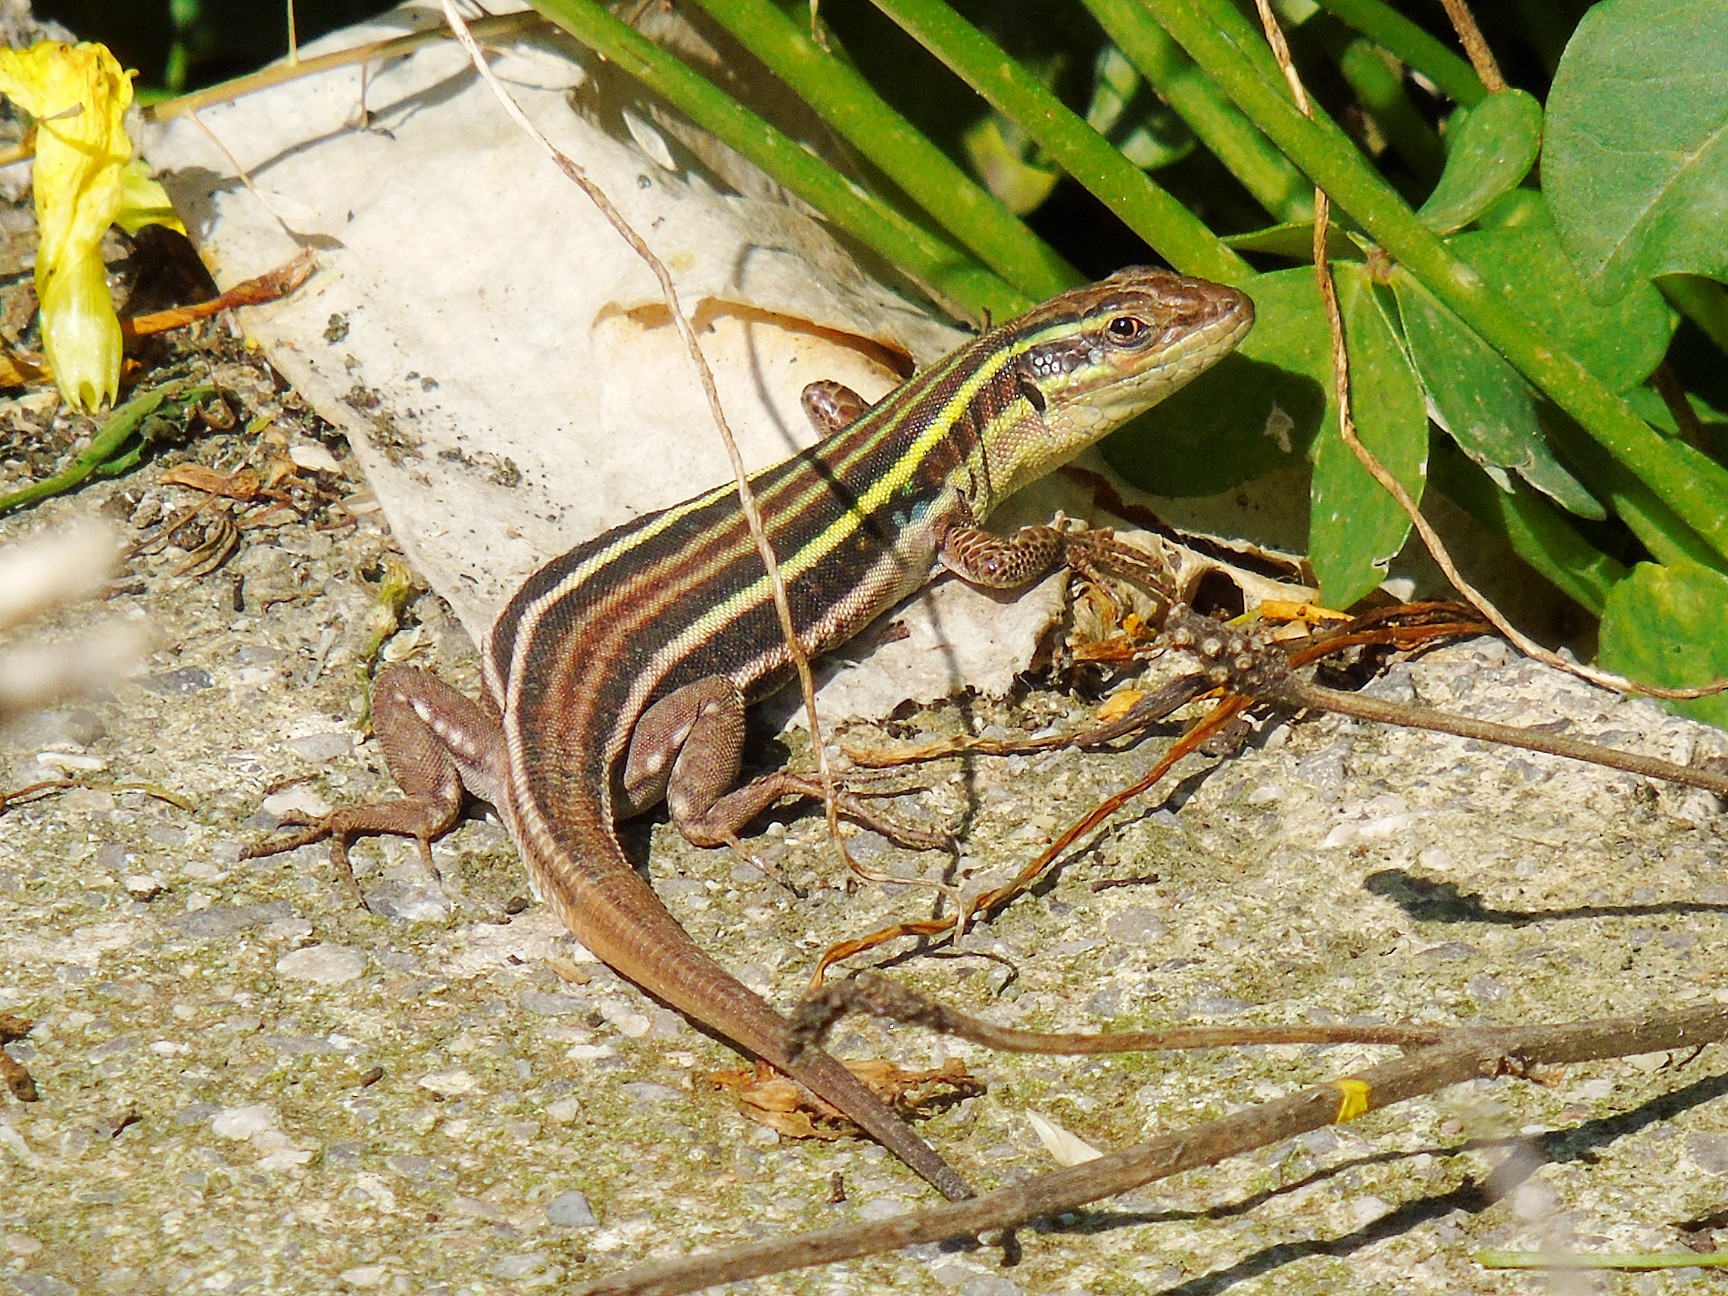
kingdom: Animalia
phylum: Chordata
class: Squamata
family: Lacertidae
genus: Podarcis
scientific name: Podarcis peloponnesiacus
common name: Peloponnese wall lizard
